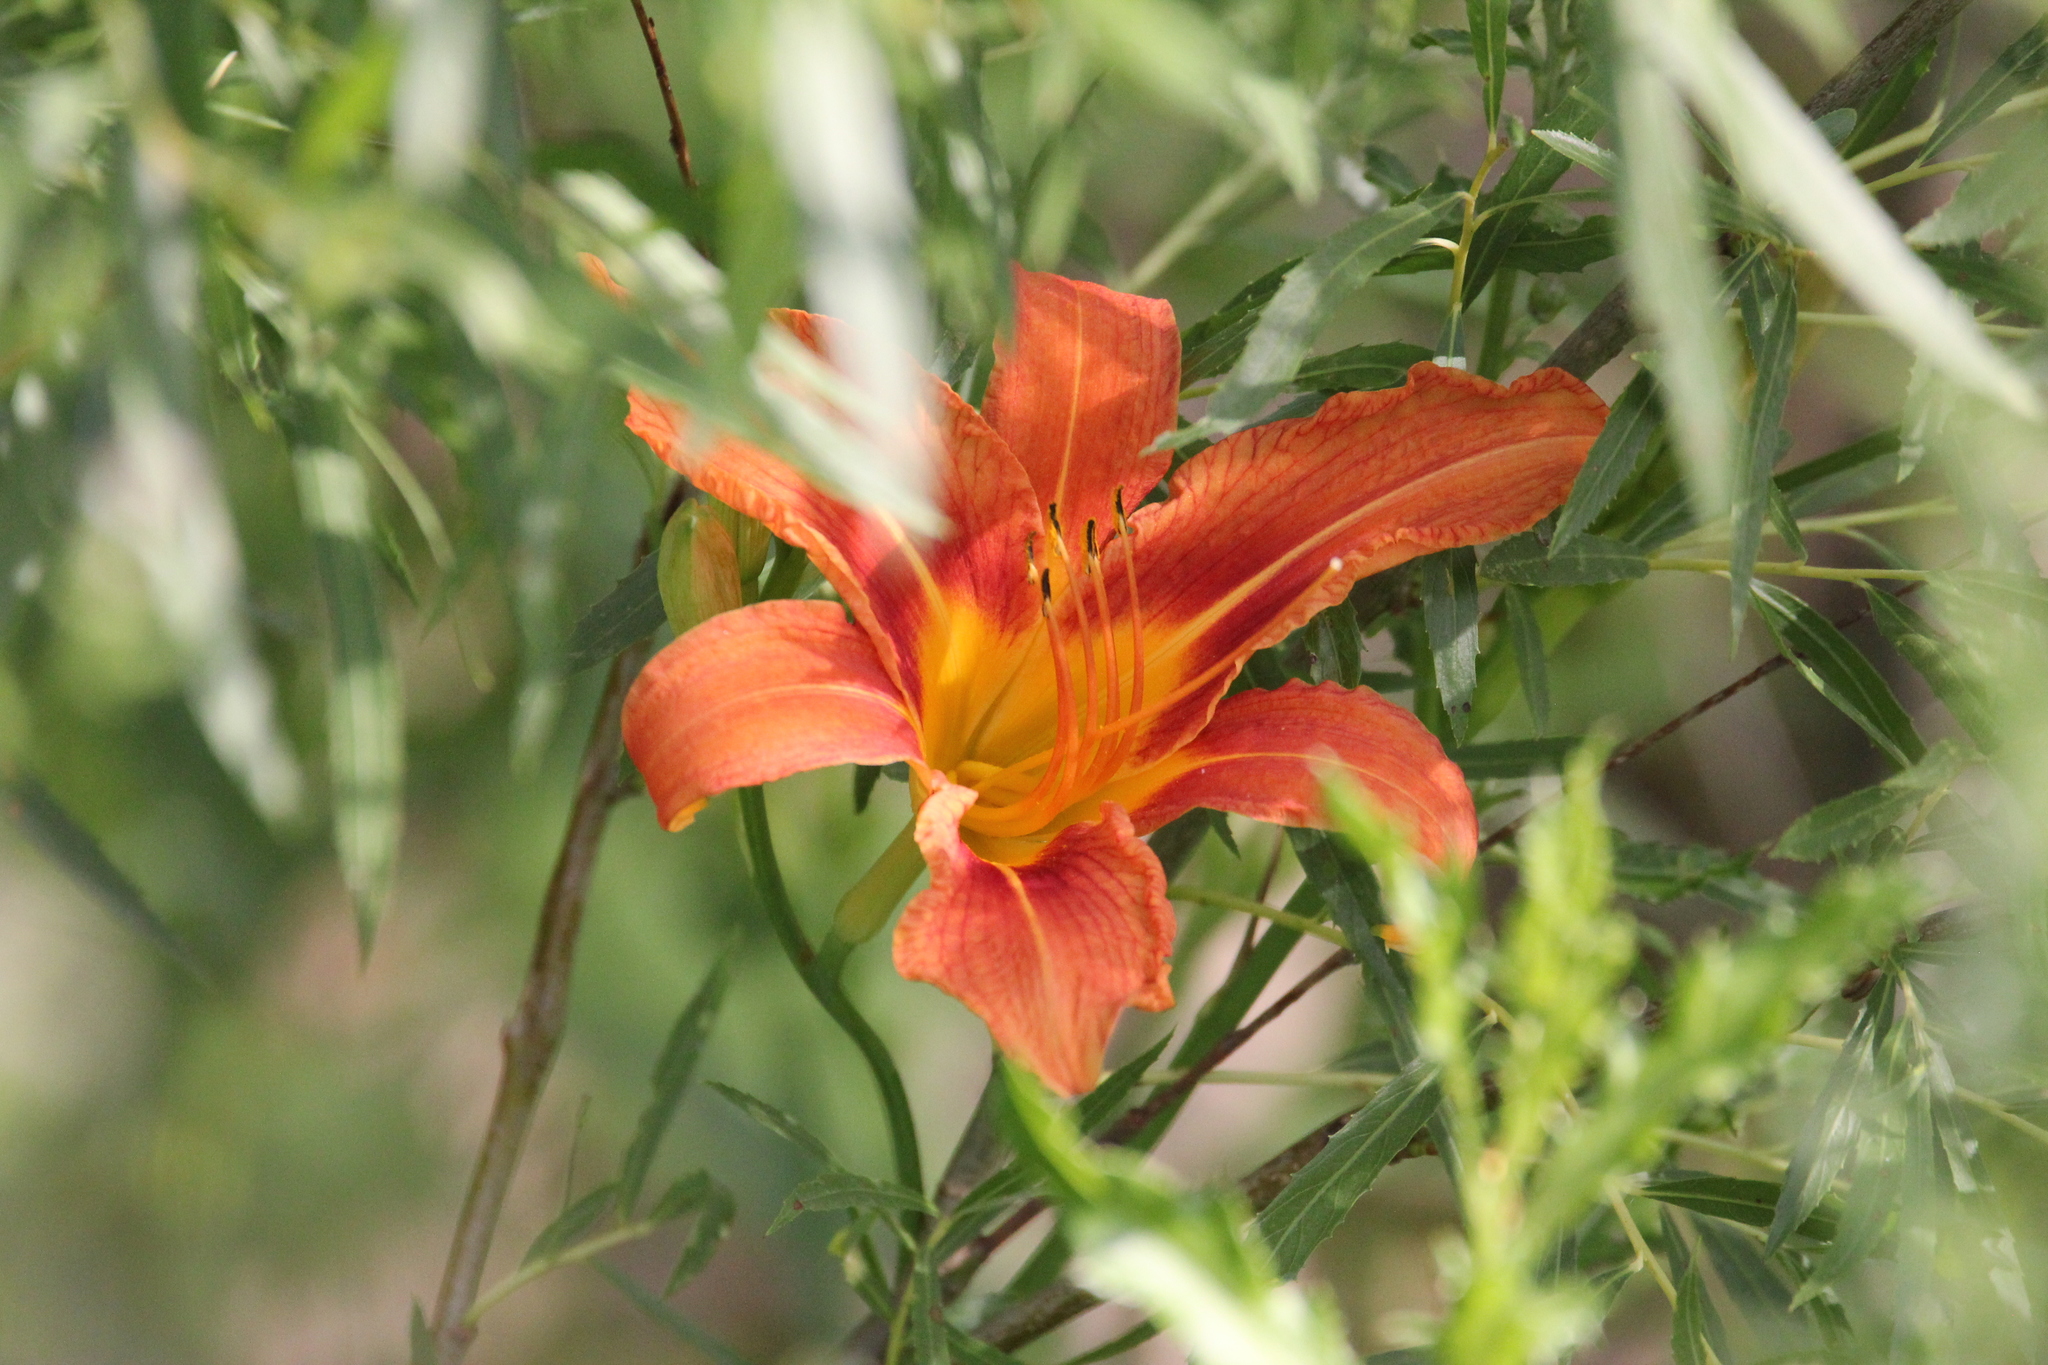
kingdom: Plantae
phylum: Tracheophyta
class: Liliopsida
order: Asparagales
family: Asphodelaceae
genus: Hemerocallis
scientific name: Hemerocallis fulva
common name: Orange day-lily
